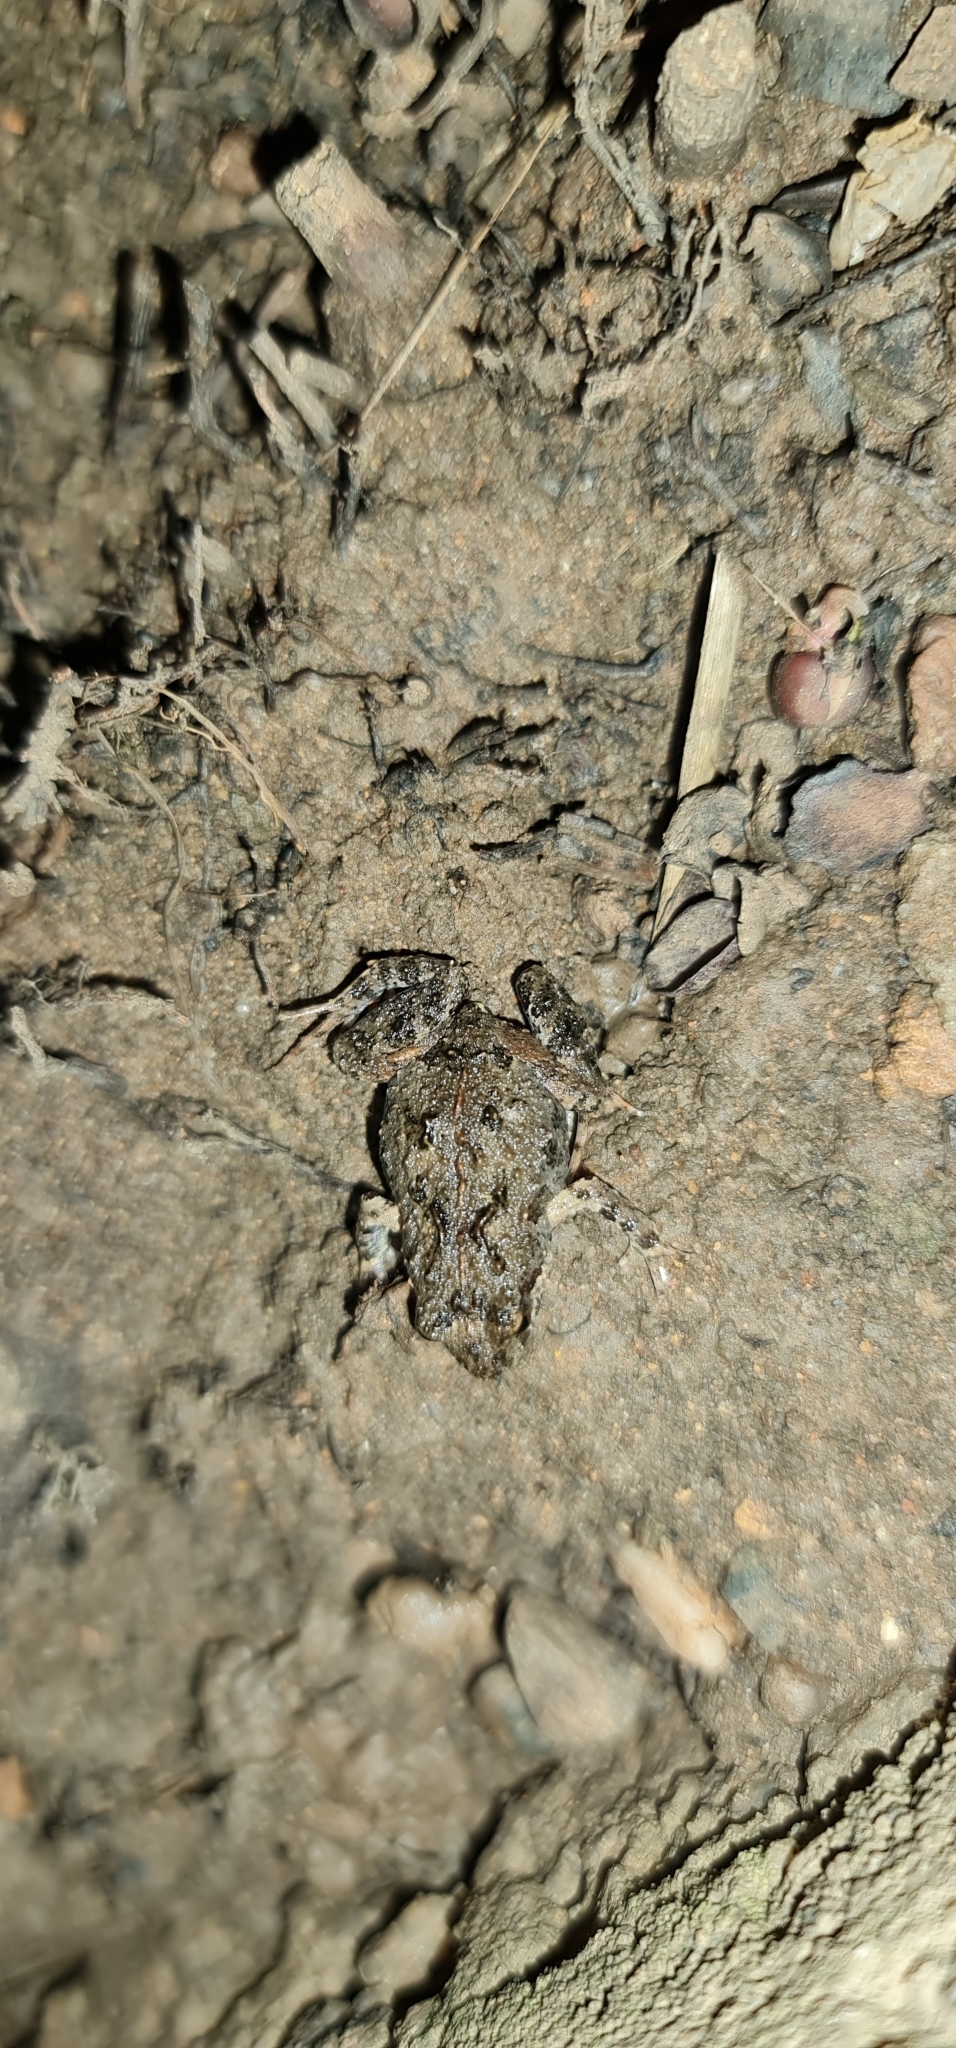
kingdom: Animalia
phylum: Chordata
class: Amphibia
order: Anura
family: Myobatrachidae
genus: Crinia
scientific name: Crinia signifera
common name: Brown froglet
